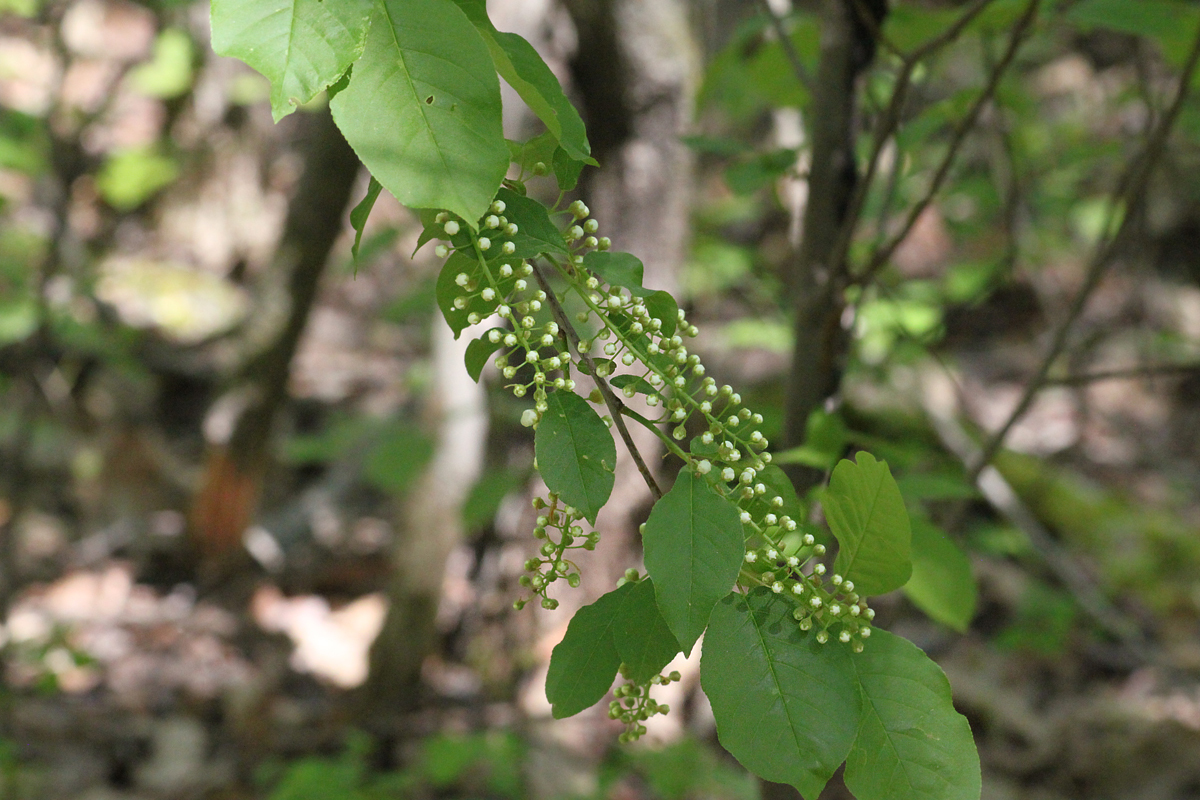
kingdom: Plantae
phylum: Tracheophyta
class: Magnoliopsida
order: Rosales
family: Rosaceae
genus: Prunus
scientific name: Prunus virginiana
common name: Chokecherry
